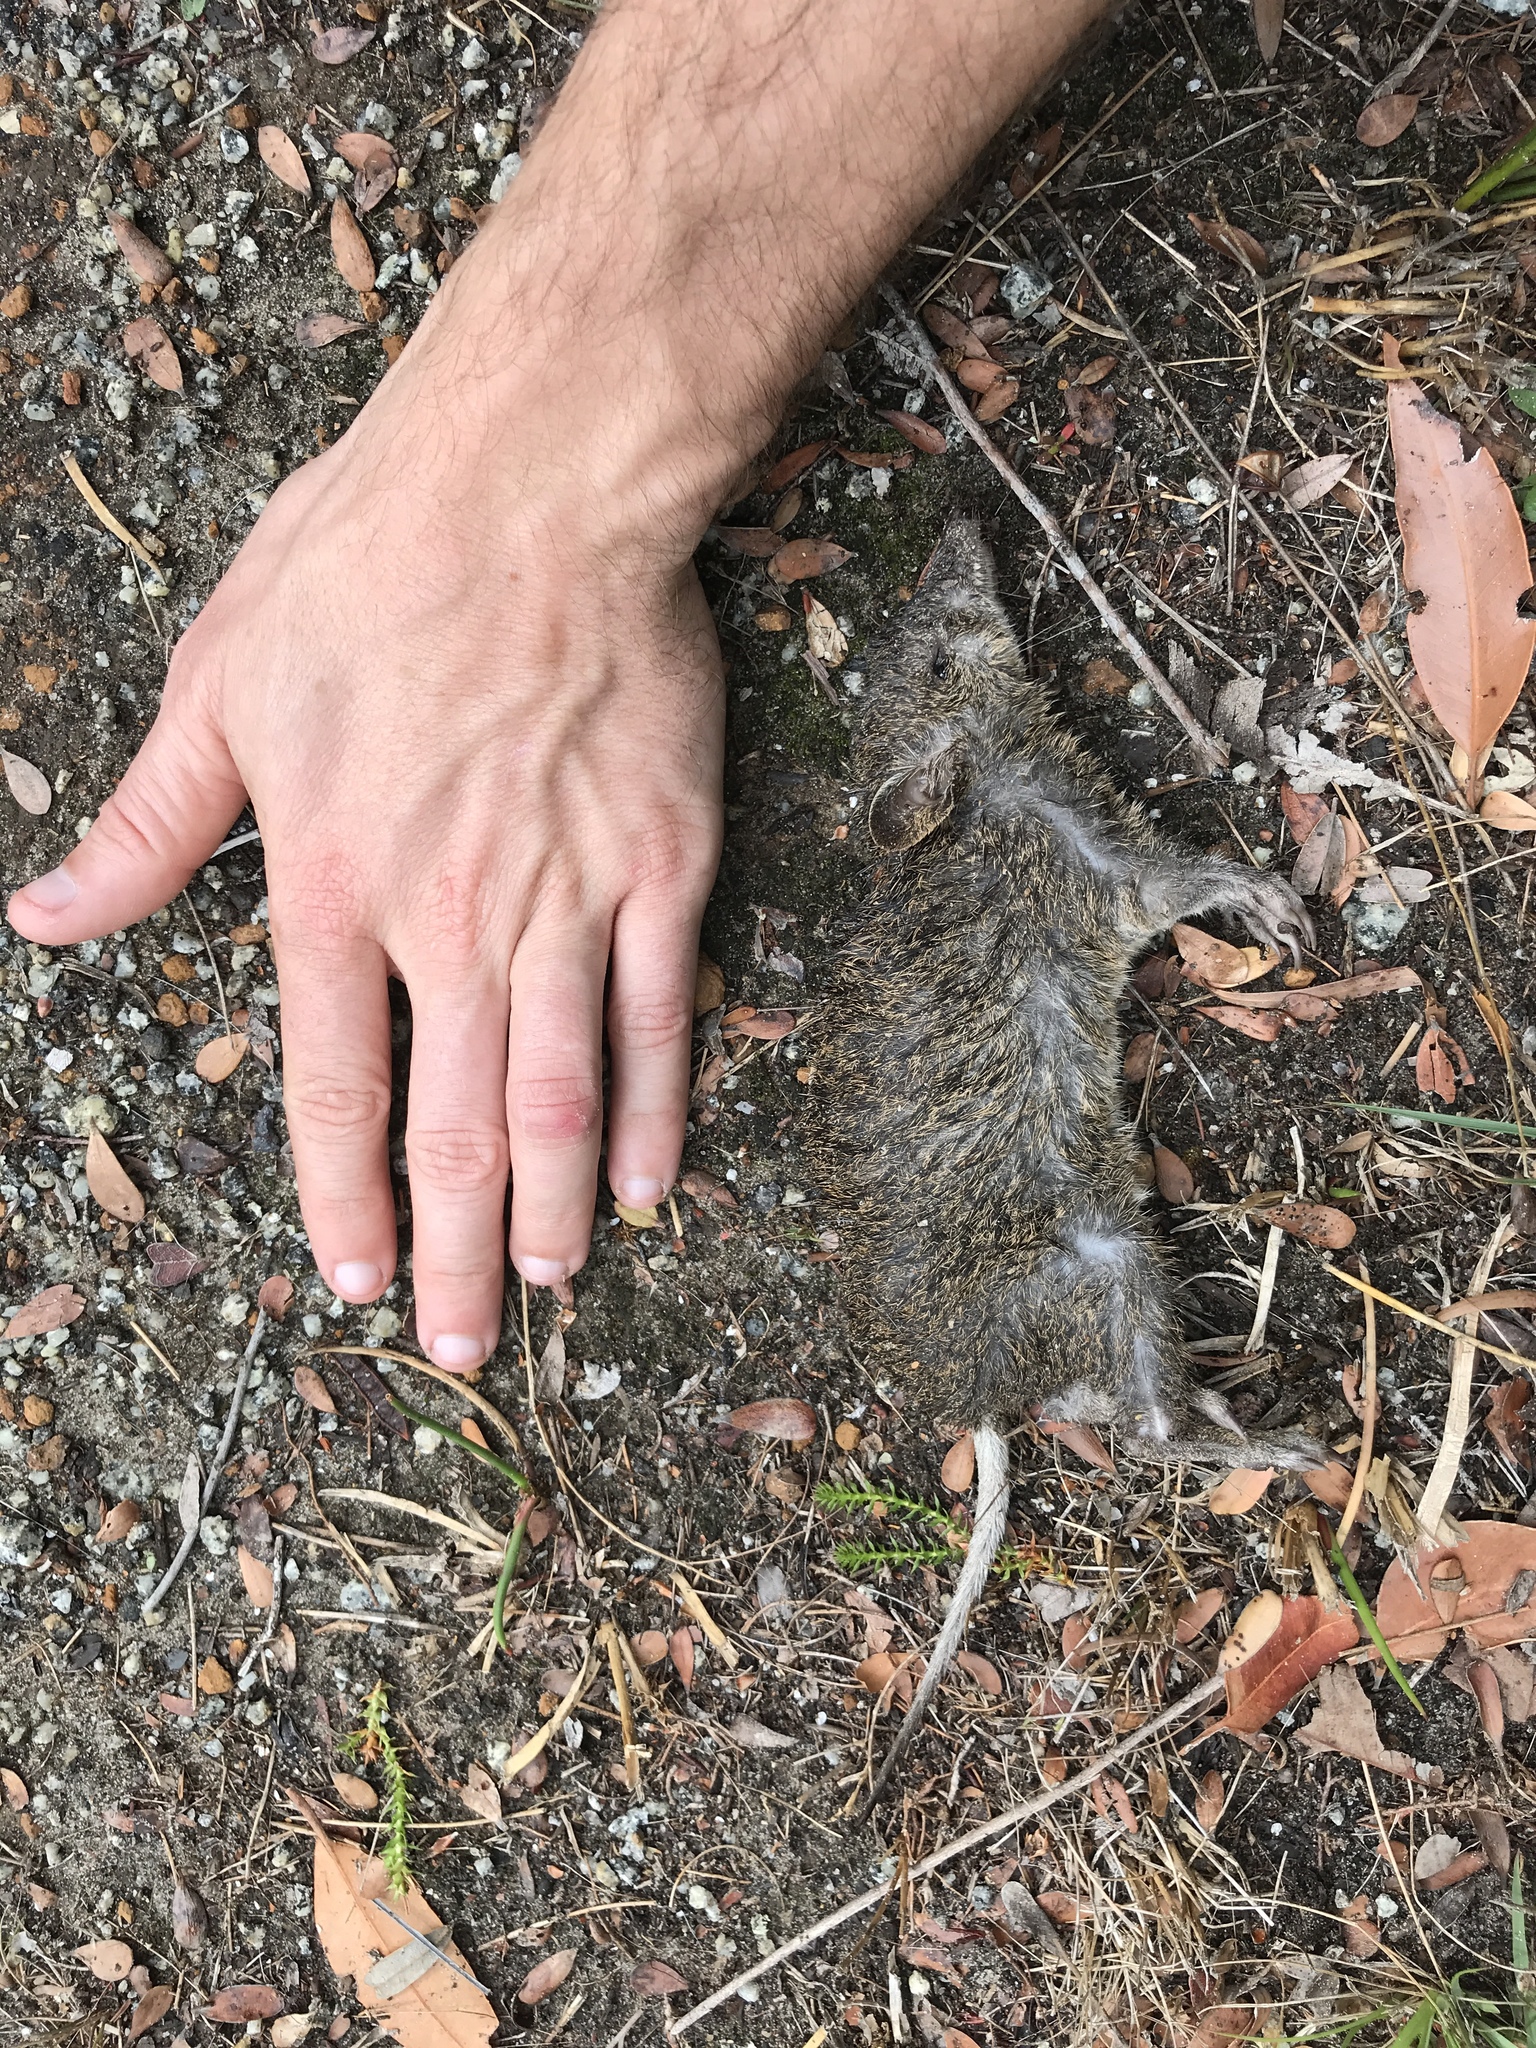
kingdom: Animalia
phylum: Chordata
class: Mammalia
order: Peramelemorphia
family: Peramelidae
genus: Isoodon
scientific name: Isoodon fusciventer
